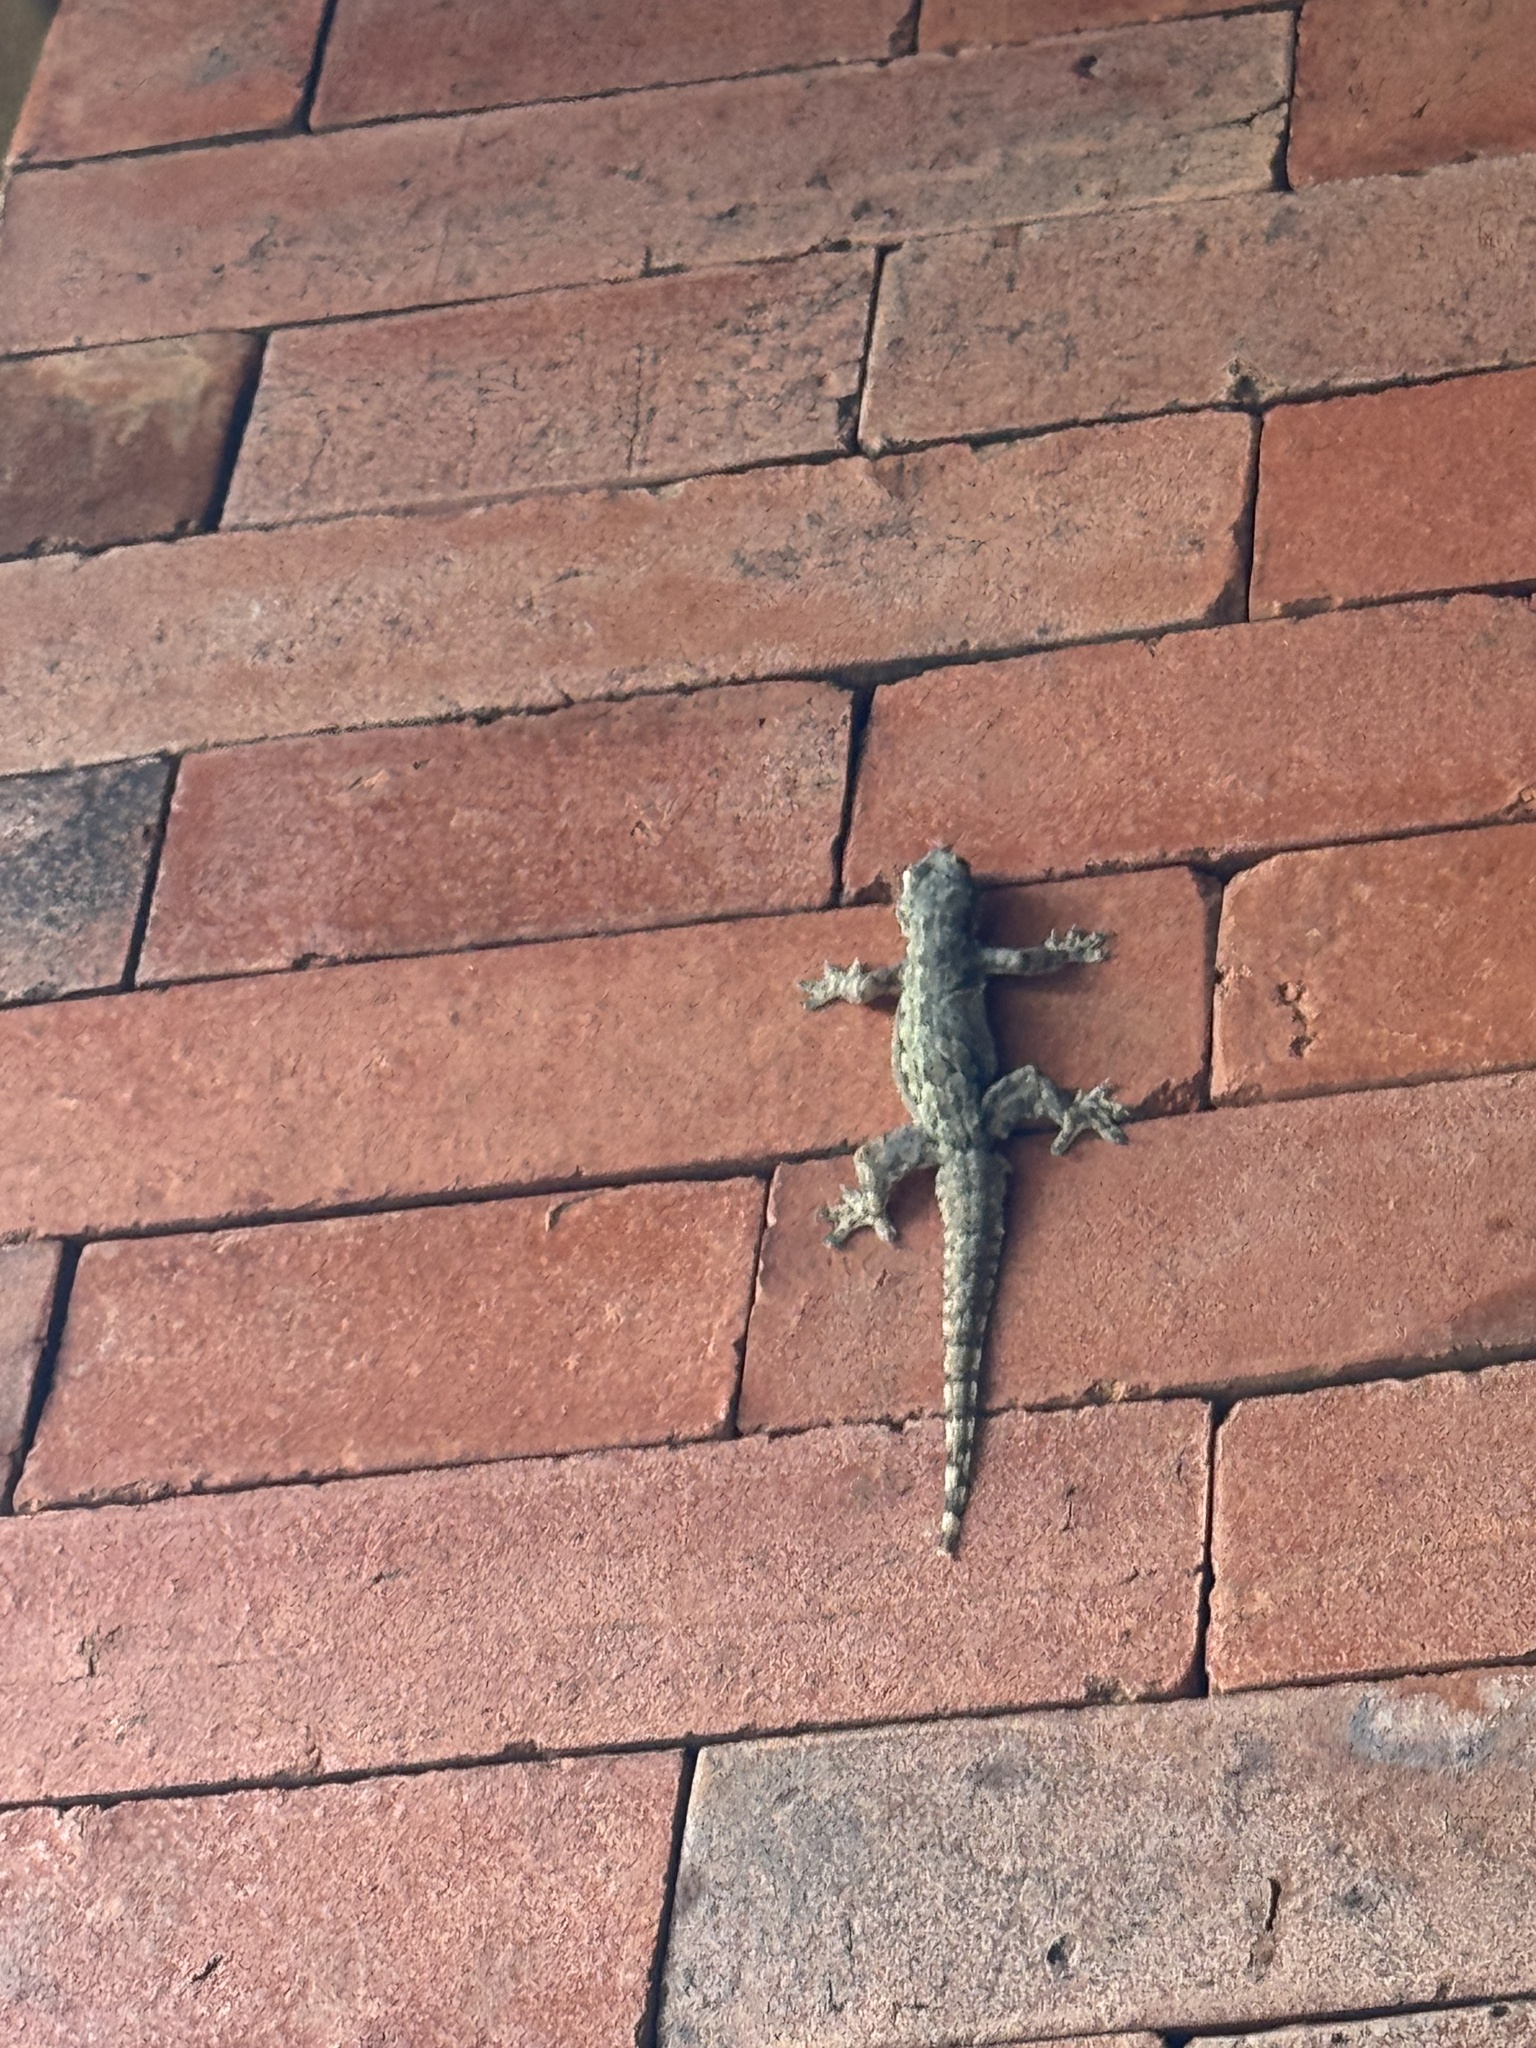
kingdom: Animalia
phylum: Chordata
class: Squamata
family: Gekkonidae
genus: Hemidactylus
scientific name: Hemidactylus platyurus
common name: Flat-tailed house gecko
